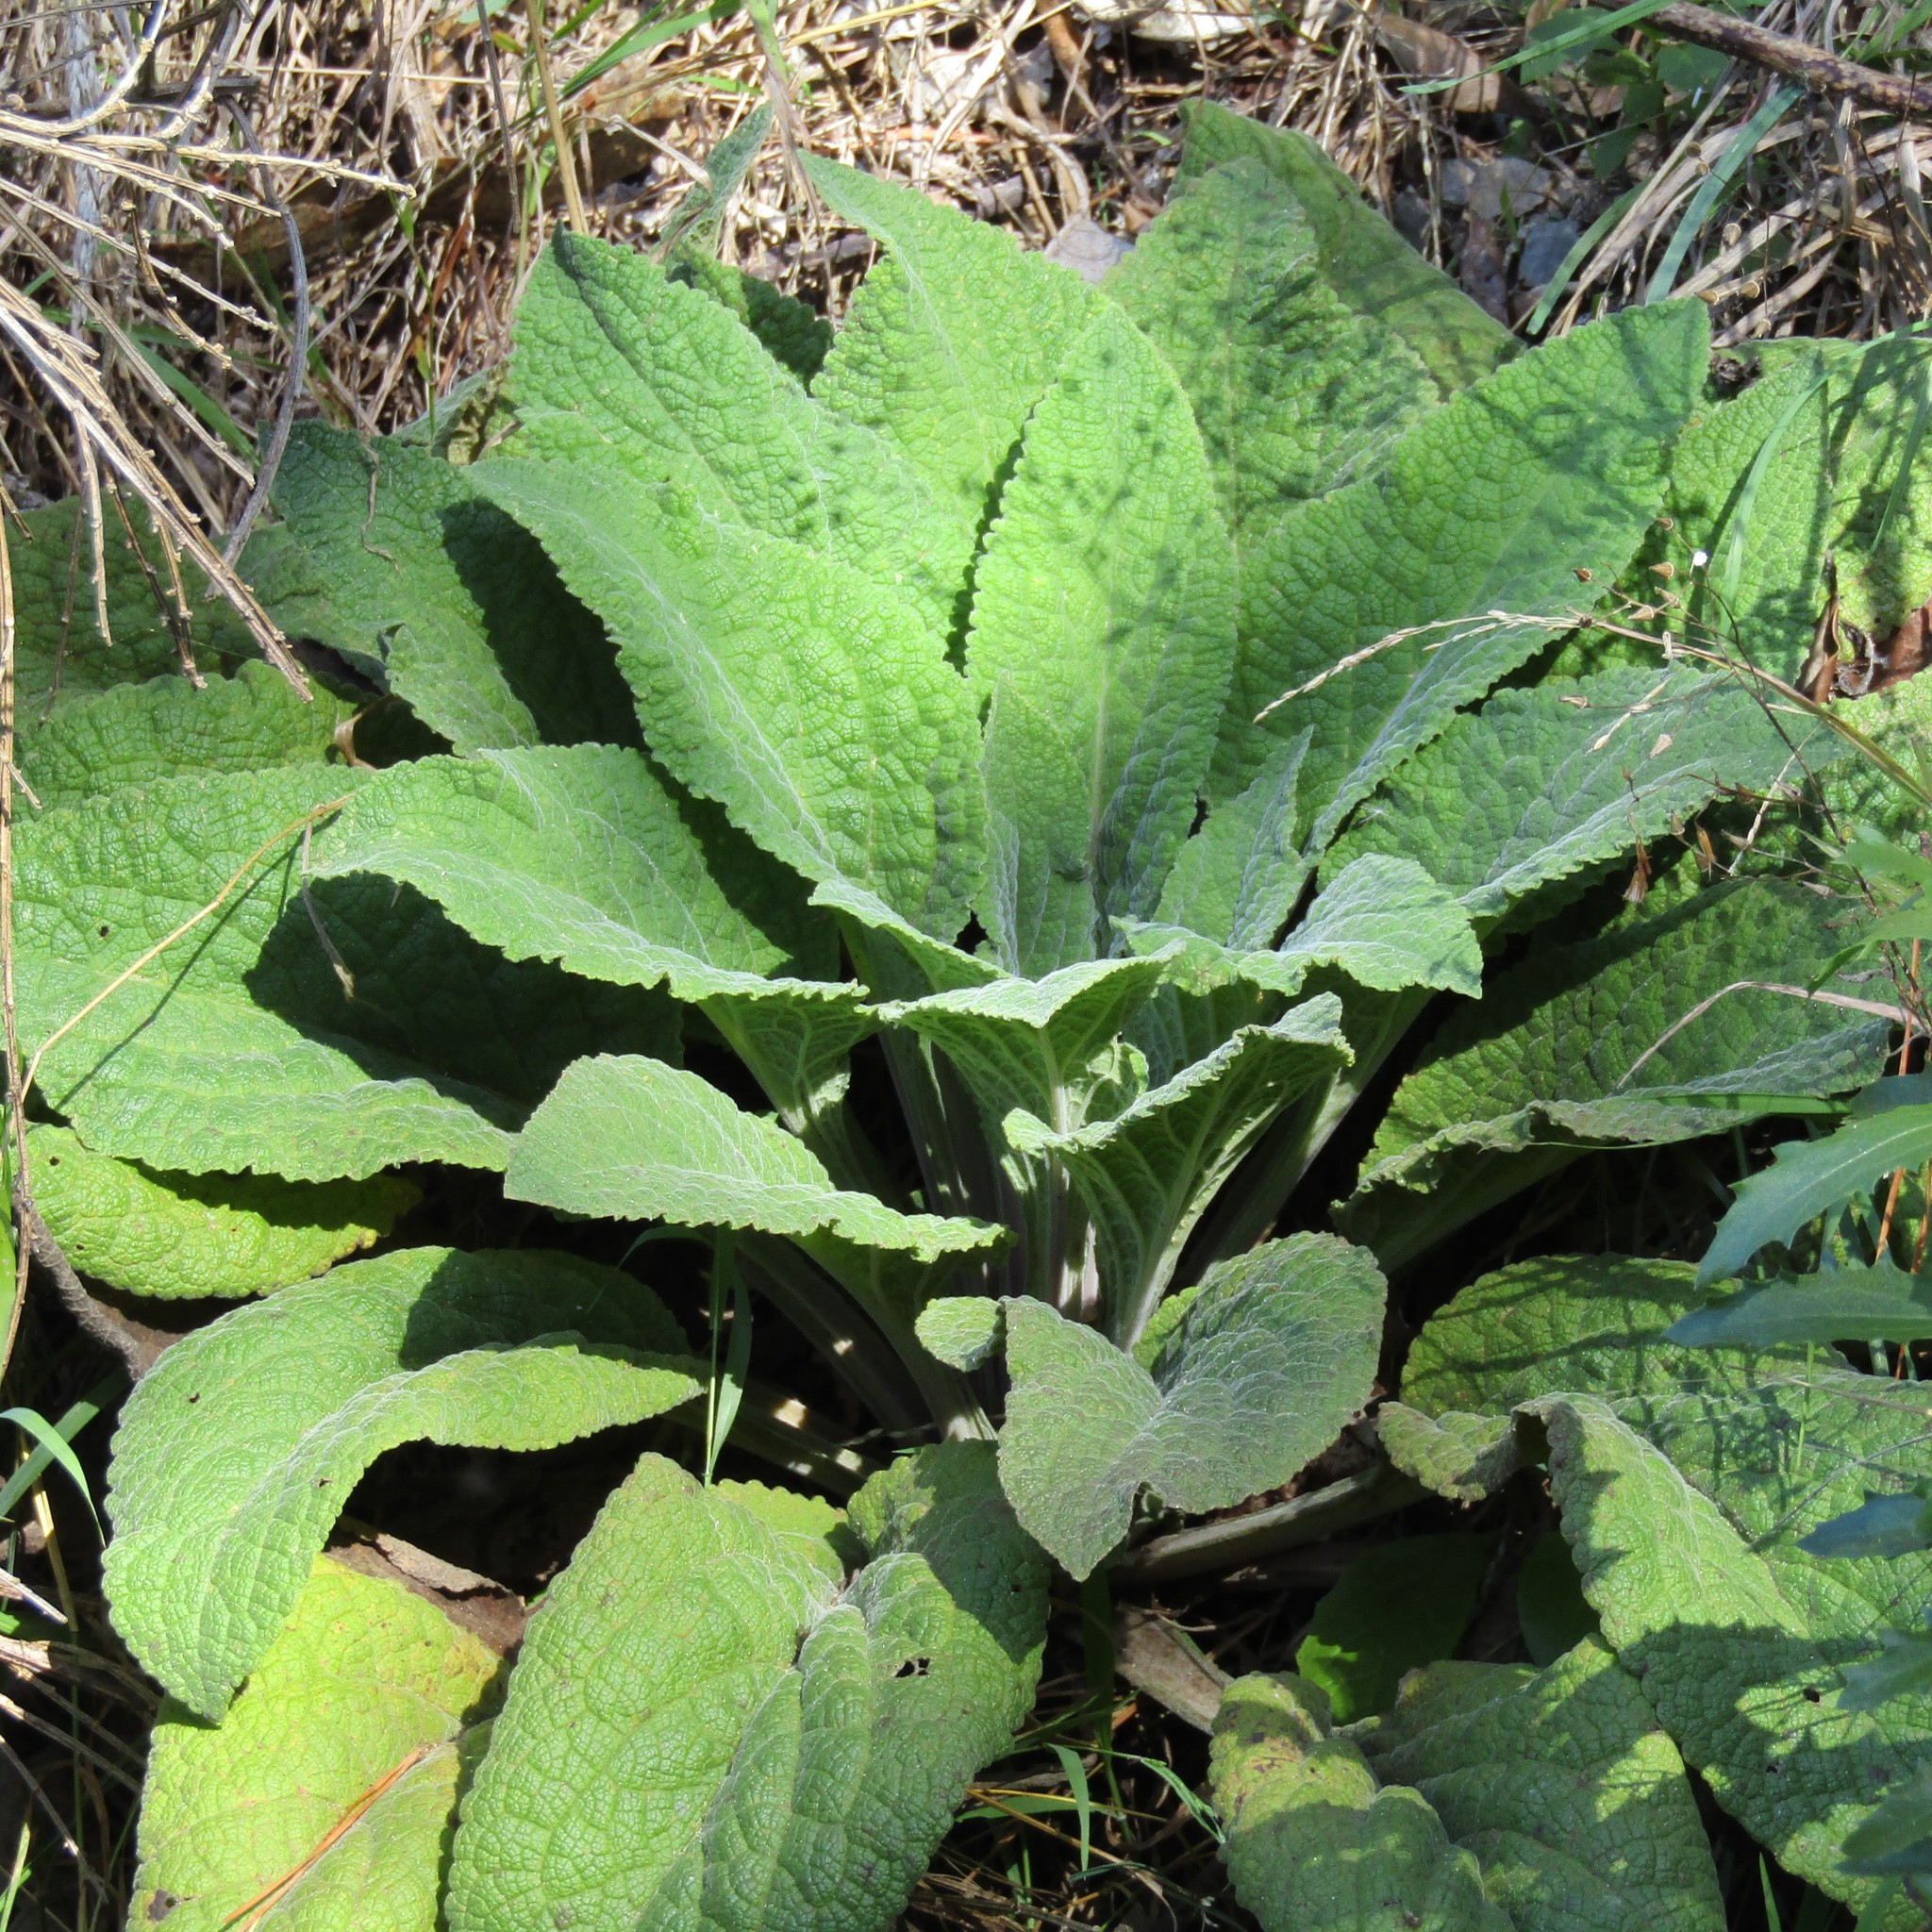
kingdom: Plantae
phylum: Tracheophyta
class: Magnoliopsida
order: Lamiales
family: Plantaginaceae
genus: Digitalis
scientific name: Digitalis purpurea
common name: Foxglove
